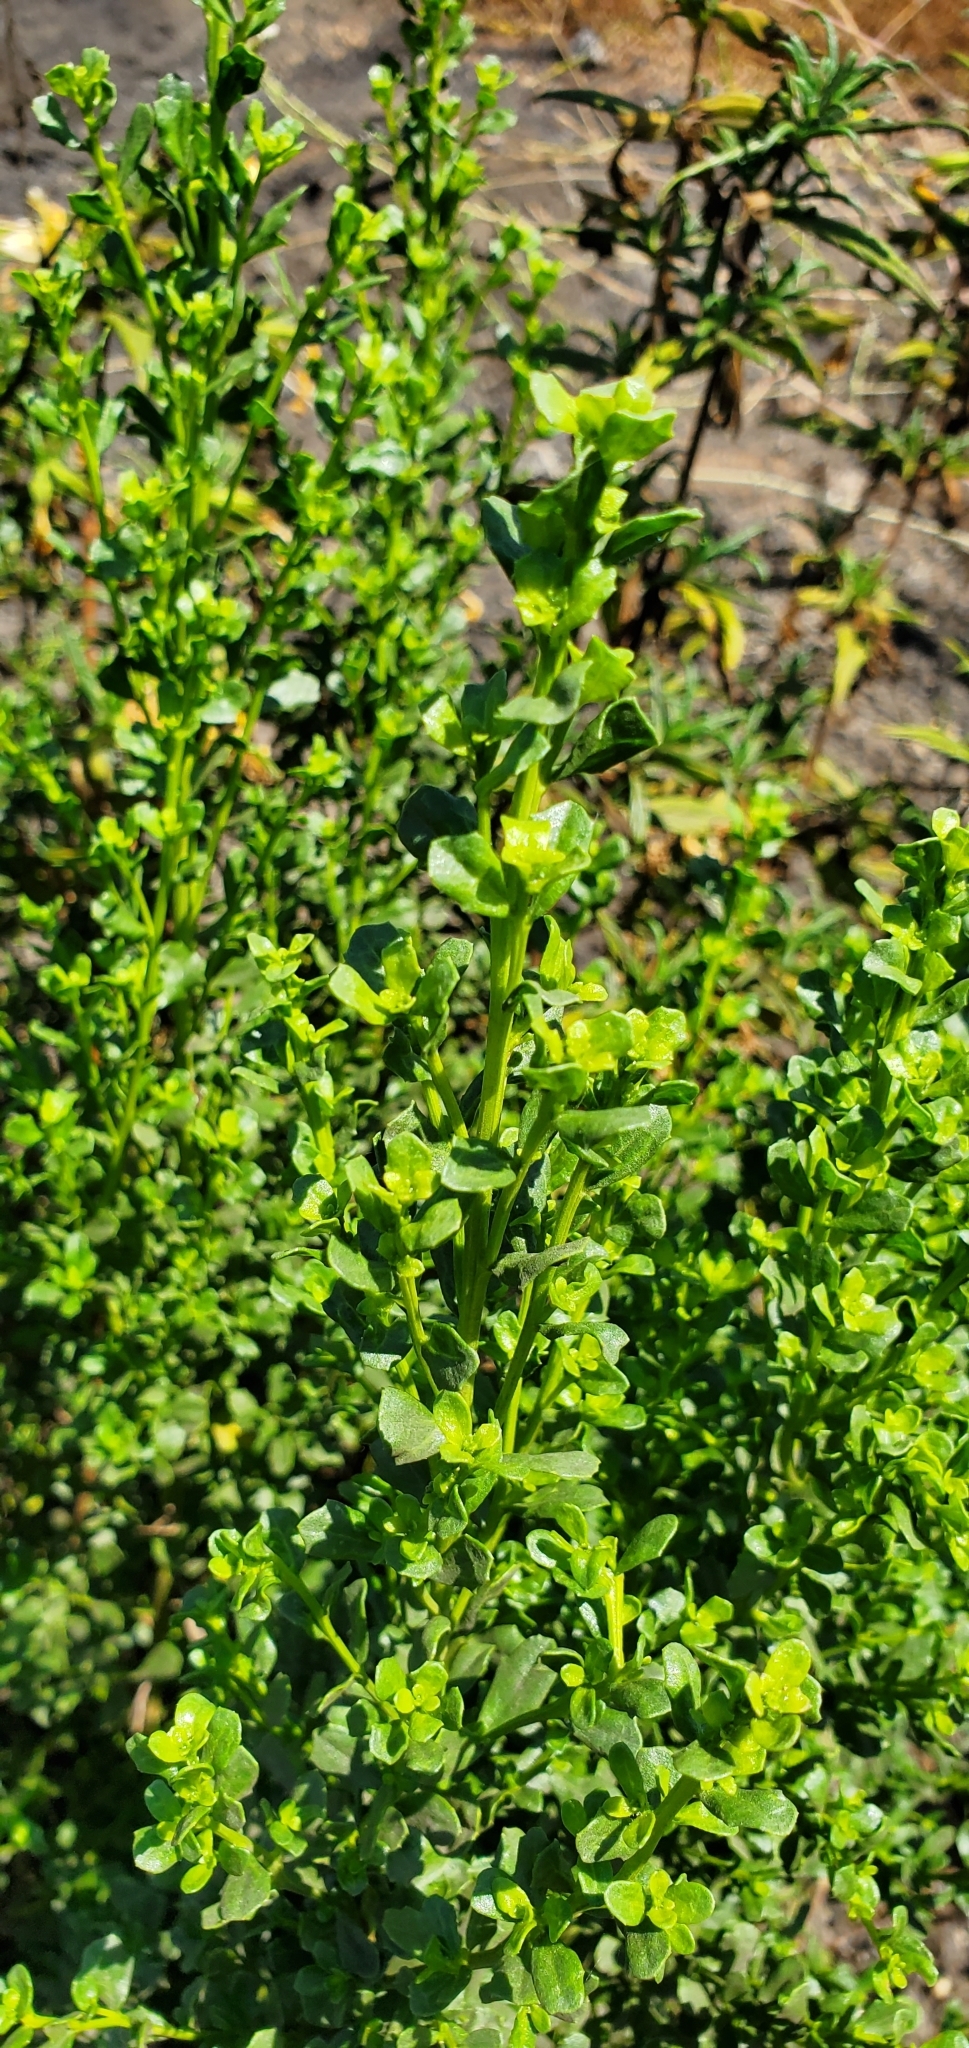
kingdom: Plantae
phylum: Tracheophyta
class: Magnoliopsida
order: Asterales
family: Asteraceae
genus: Baccharis
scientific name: Baccharis pilularis
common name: Coyotebrush
